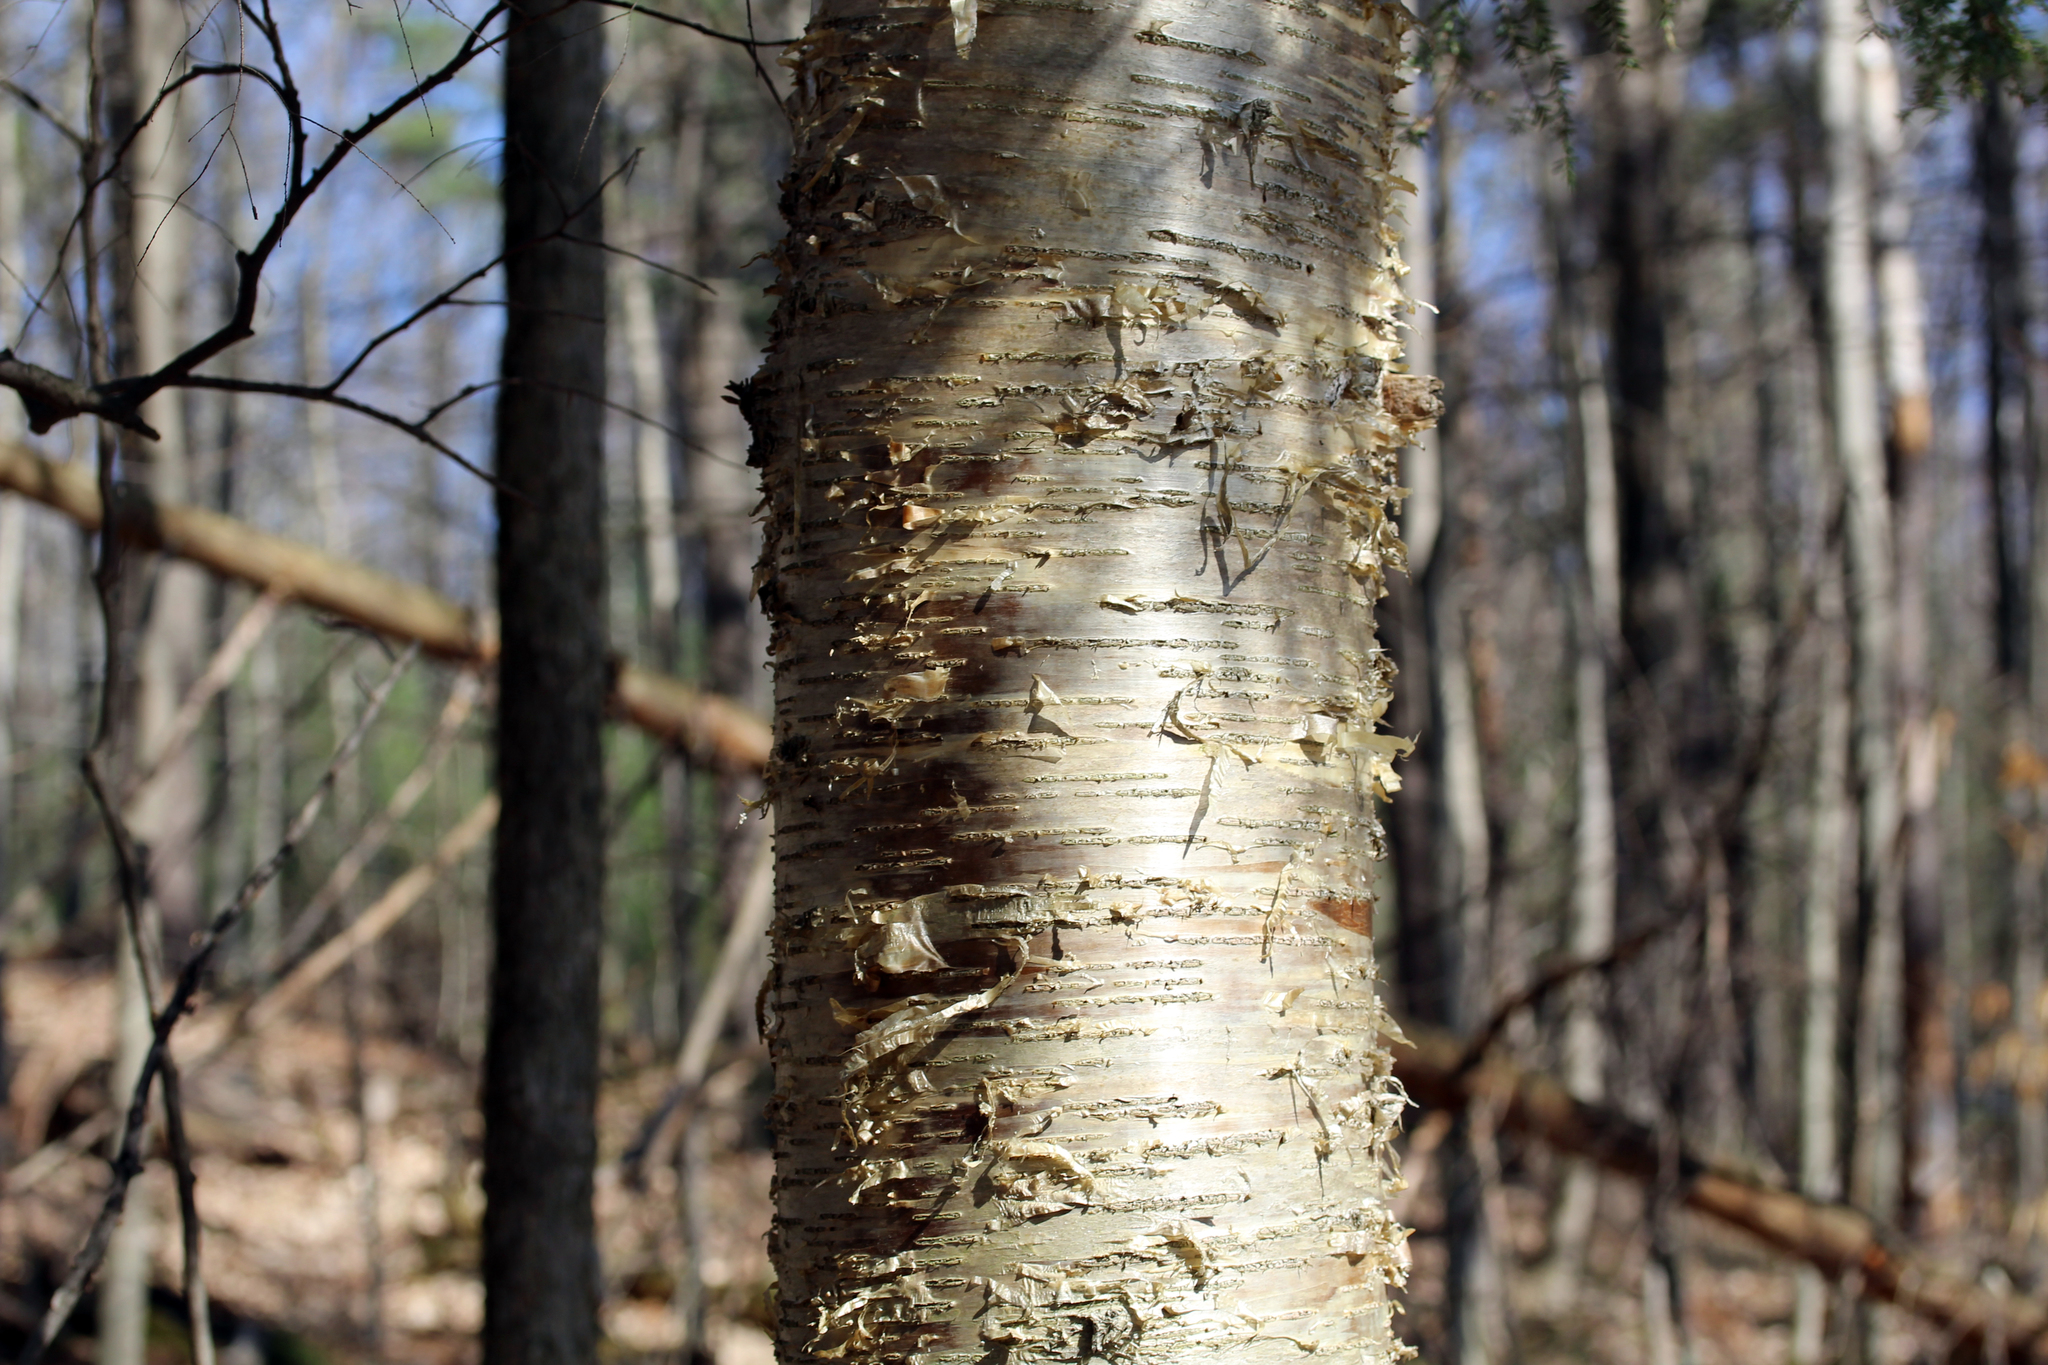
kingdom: Plantae
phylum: Tracheophyta
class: Magnoliopsida
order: Fagales
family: Betulaceae
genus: Betula
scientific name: Betula alleghaniensis
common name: Yellow birch
